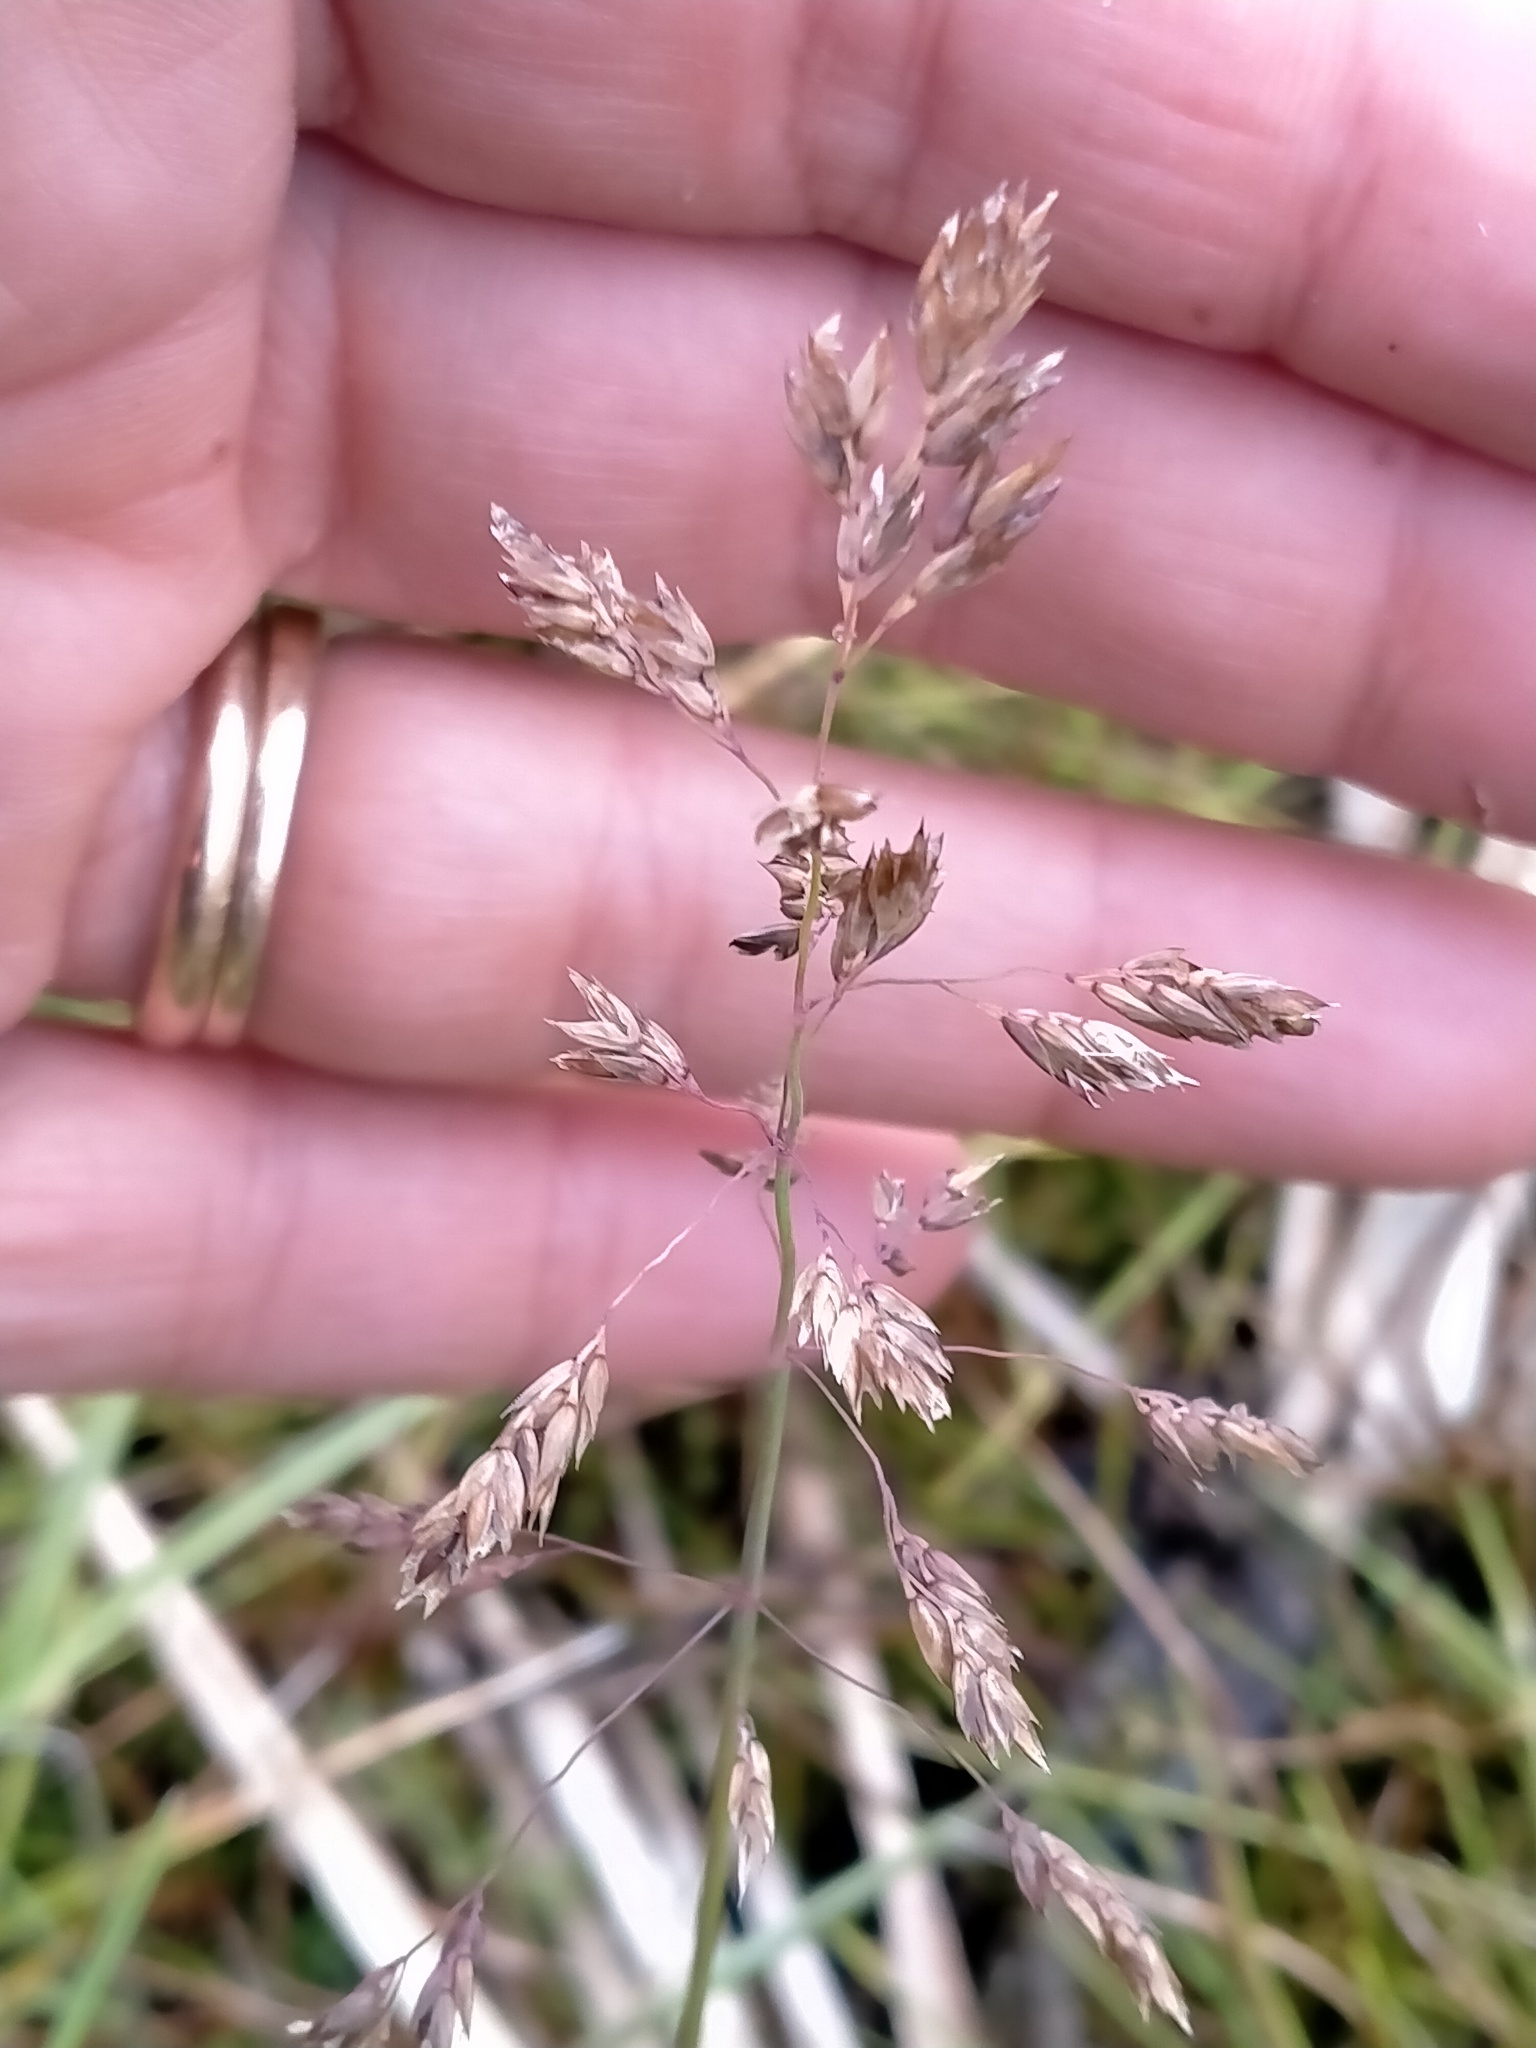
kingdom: Plantae
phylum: Tracheophyta
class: Liliopsida
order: Poales
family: Poaceae
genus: Poa
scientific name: Poa annua
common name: Annual bluegrass
